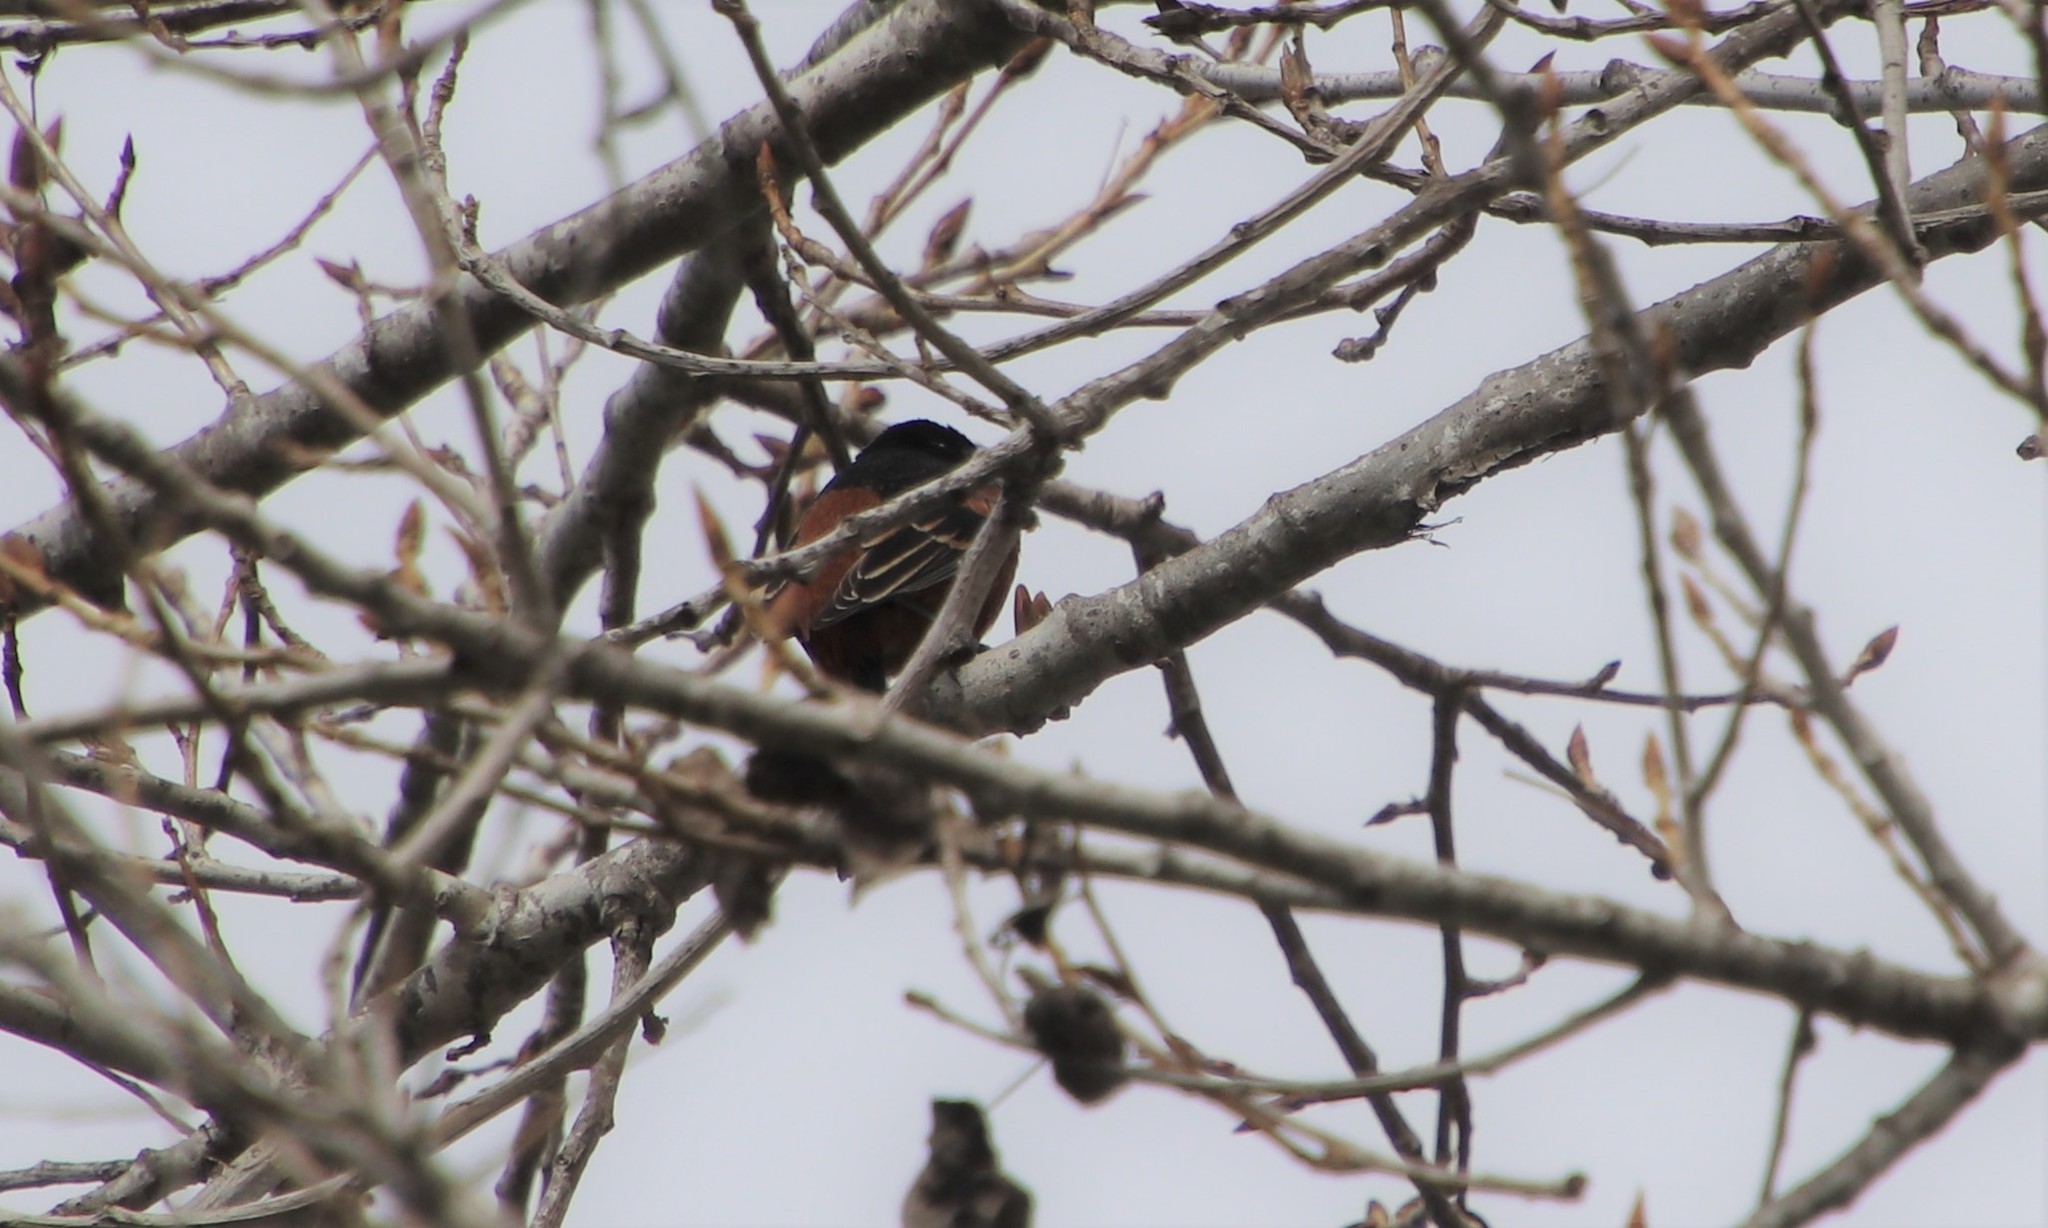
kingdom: Animalia
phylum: Chordata
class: Aves
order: Passeriformes
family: Icteridae
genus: Icterus
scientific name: Icterus spurius
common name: Orchard oriole
